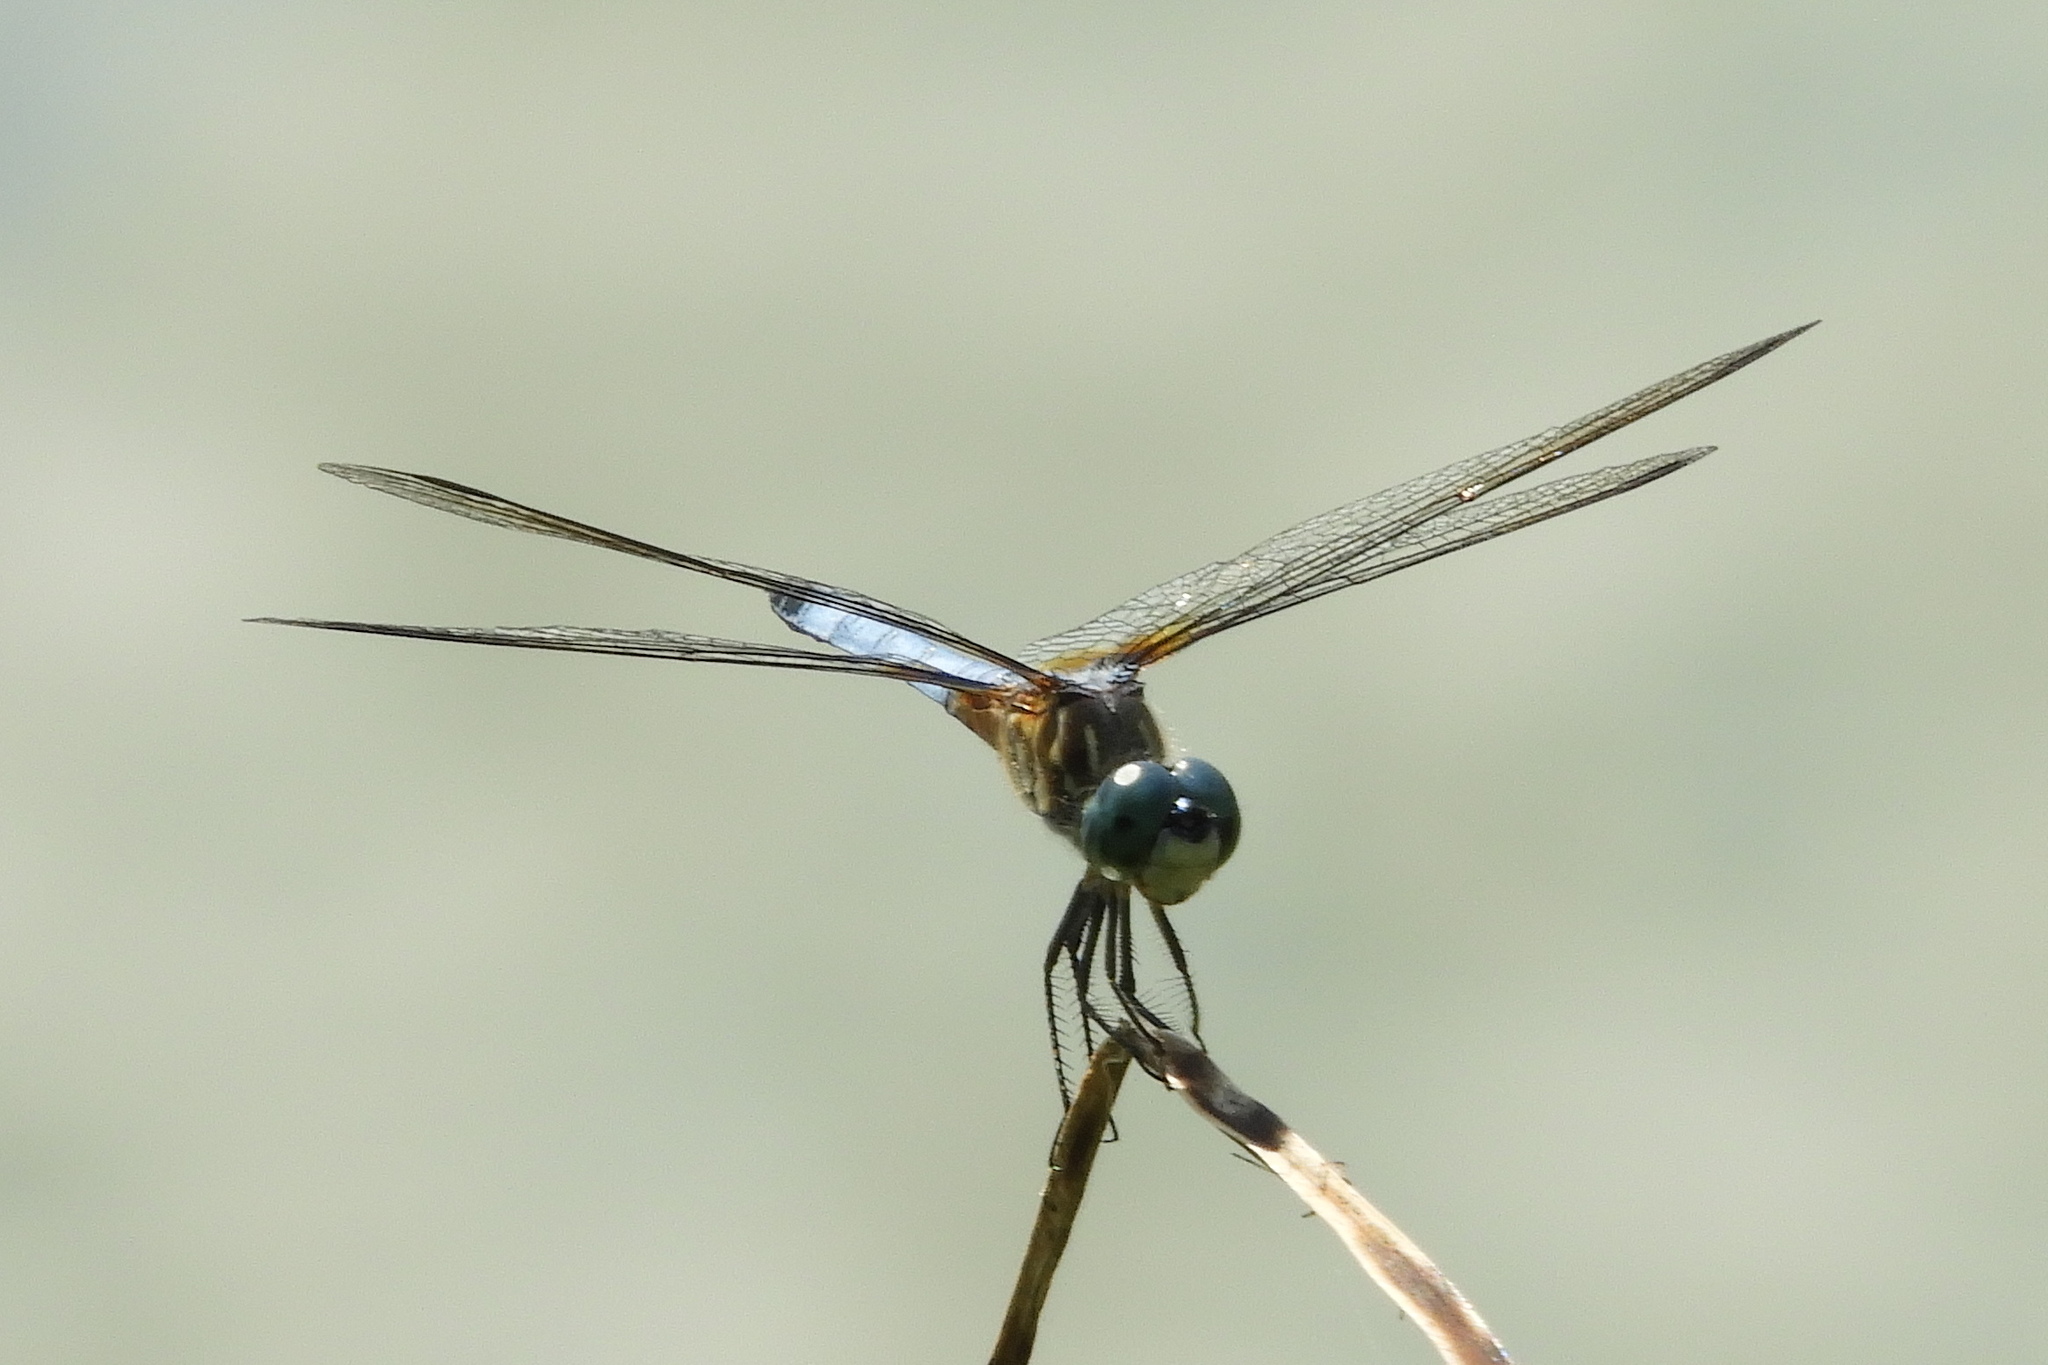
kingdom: Animalia
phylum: Arthropoda
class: Insecta
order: Odonata
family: Libellulidae
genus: Pachydiplax
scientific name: Pachydiplax longipennis
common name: Blue dasher
